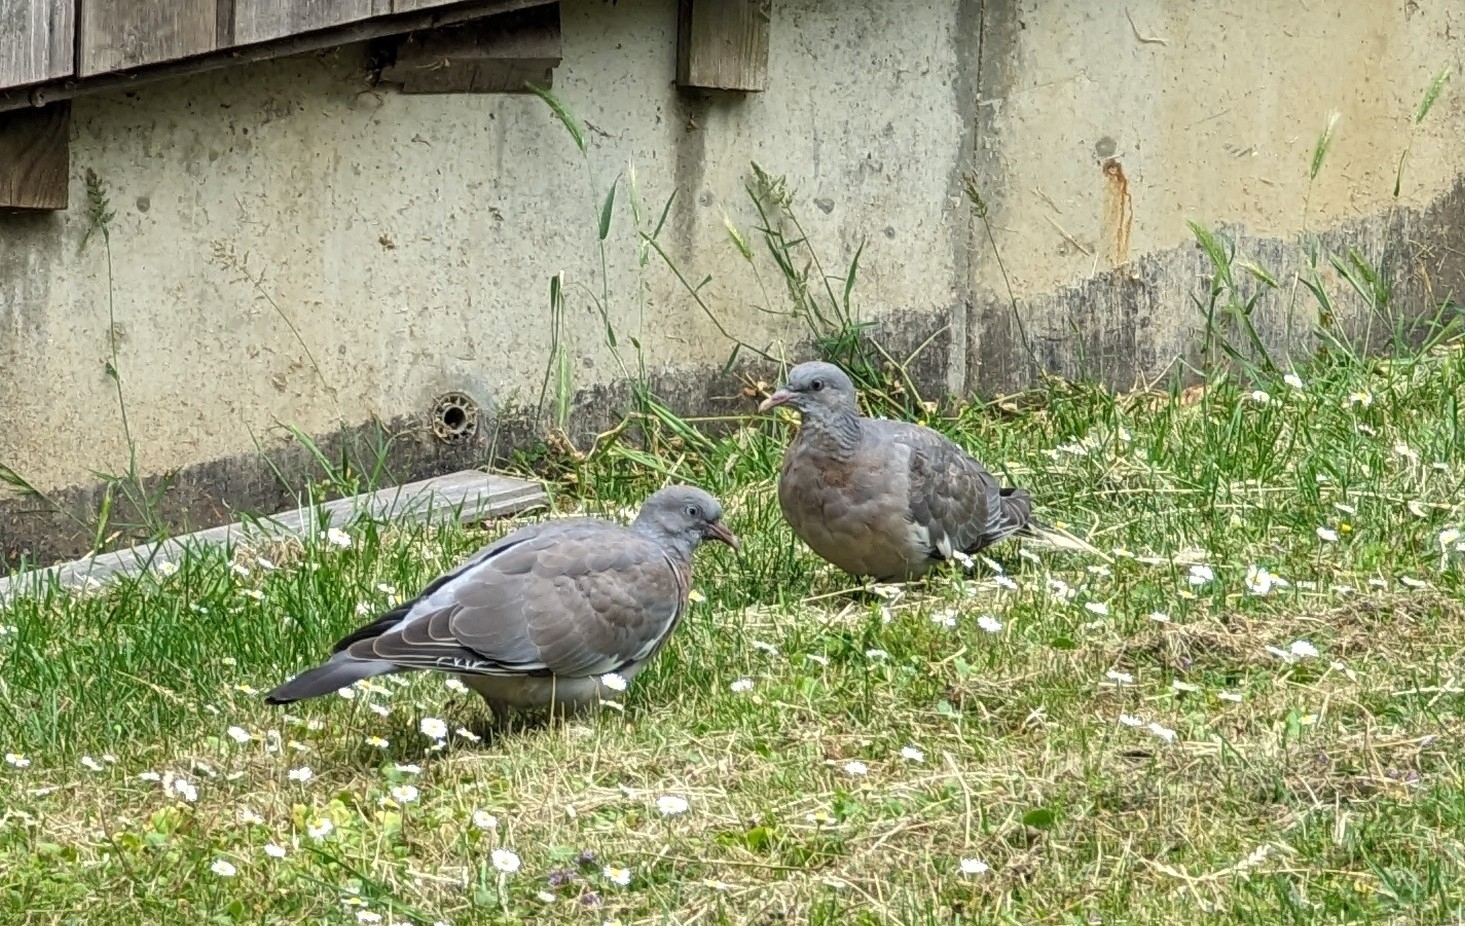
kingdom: Animalia
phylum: Chordata
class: Aves
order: Columbiformes
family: Columbidae
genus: Columba
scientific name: Columba palumbus
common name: Common wood pigeon
